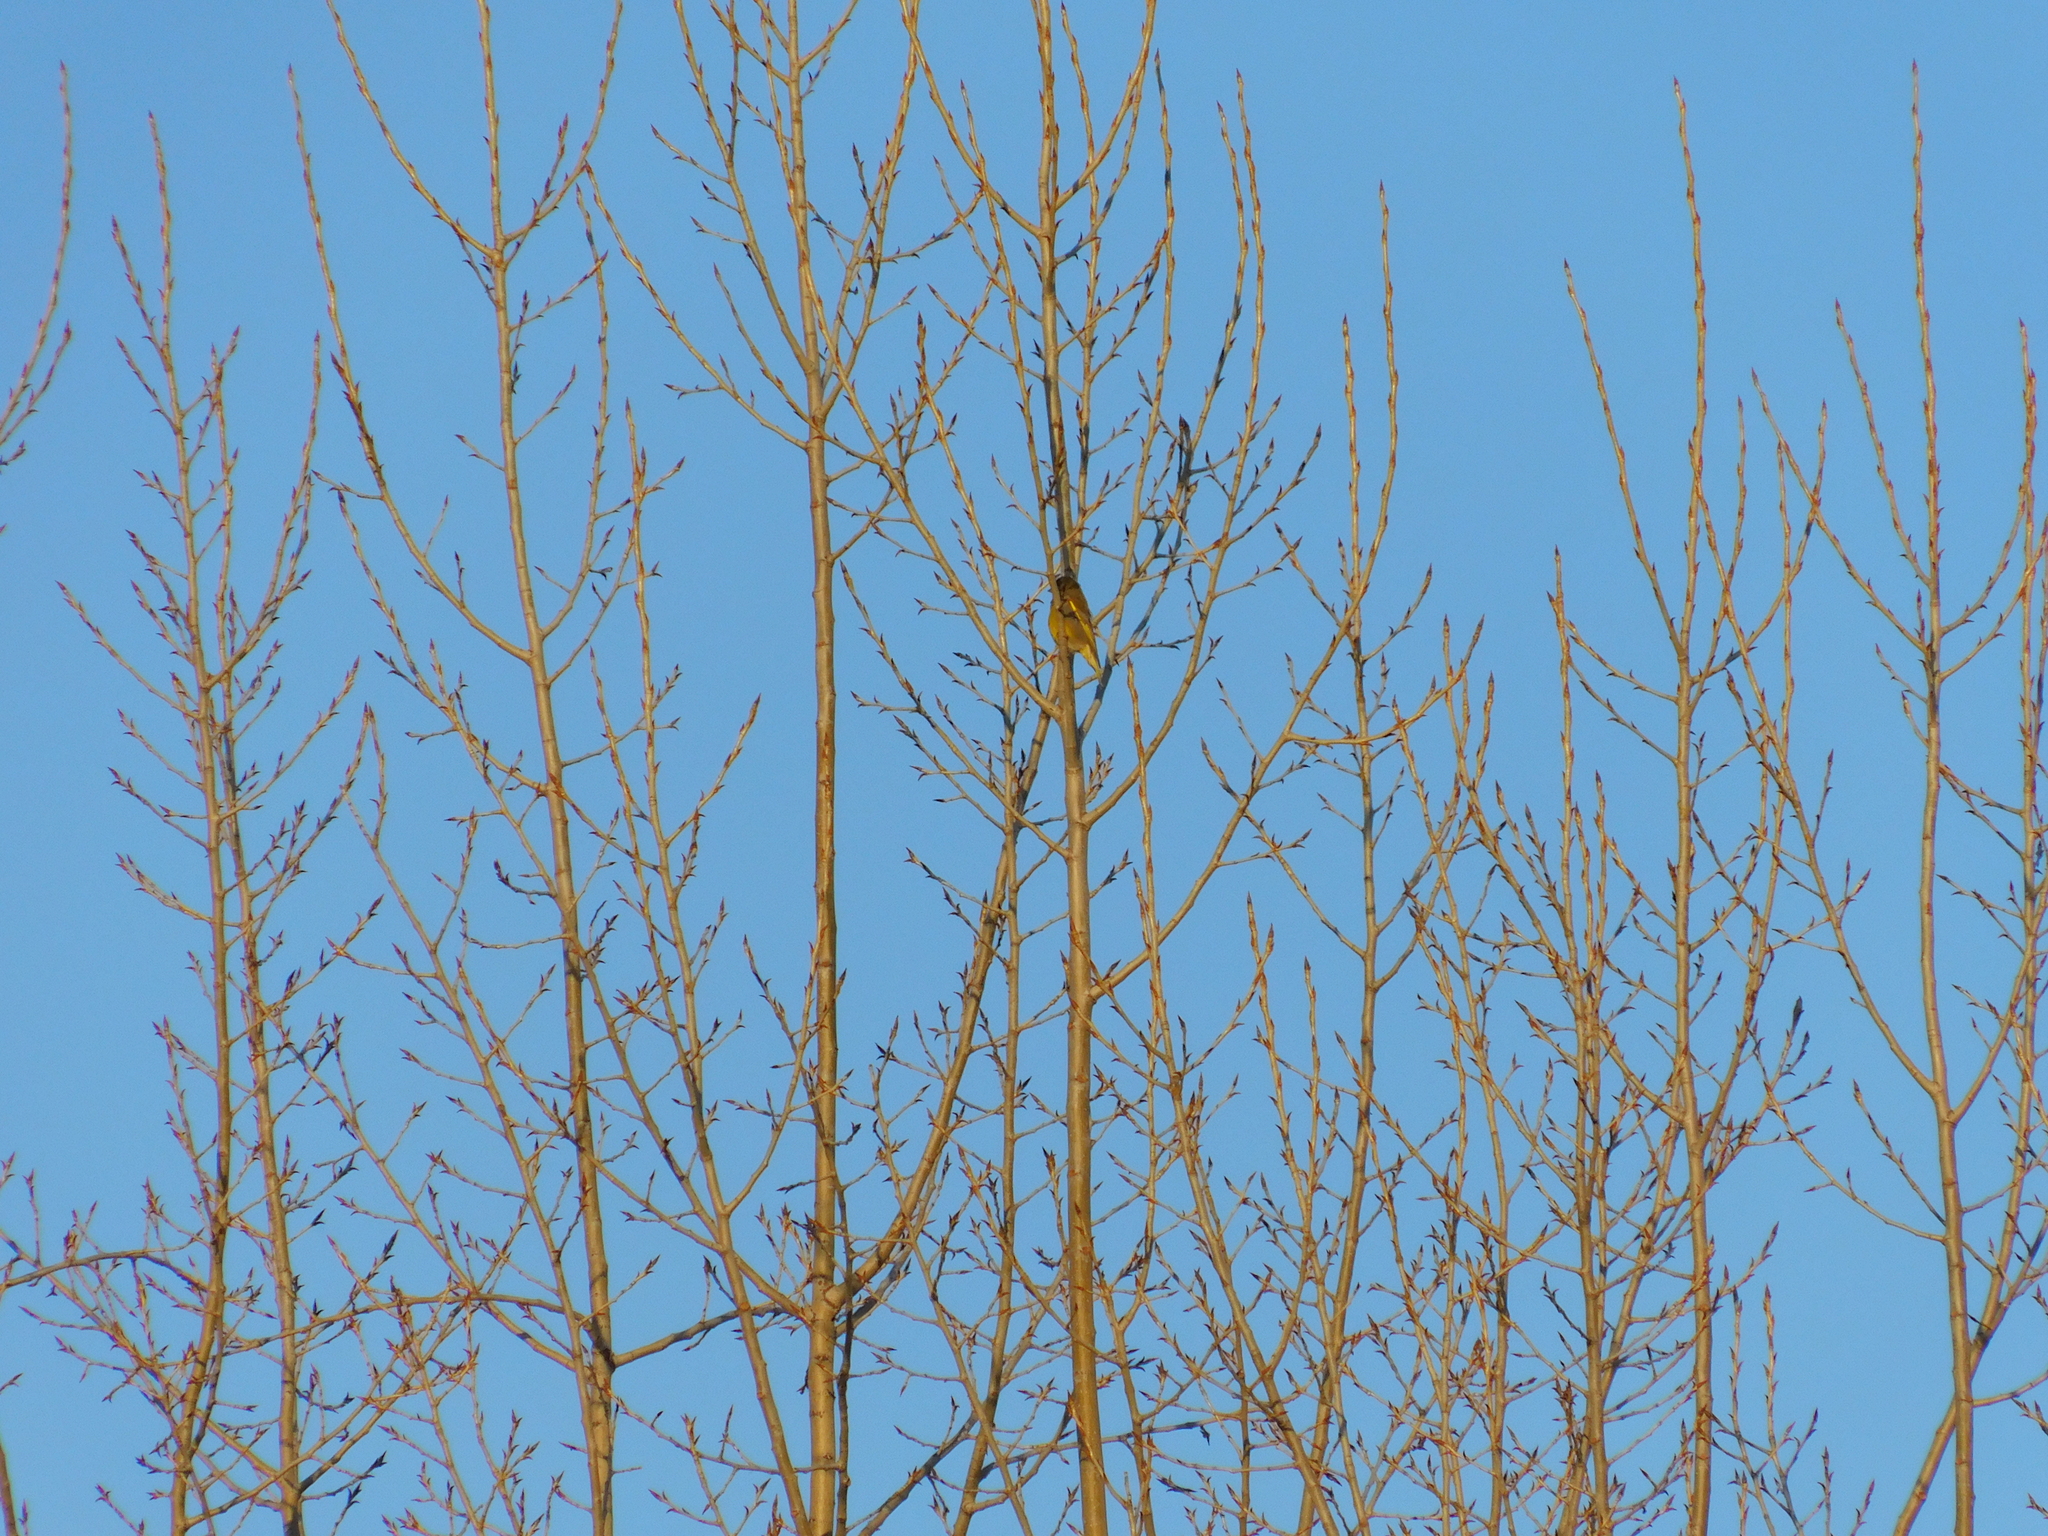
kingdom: Plantae
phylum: Tracheophyta
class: Liliopsida
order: Poales
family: Poaceae
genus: Chloris
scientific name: Chloris chloris
